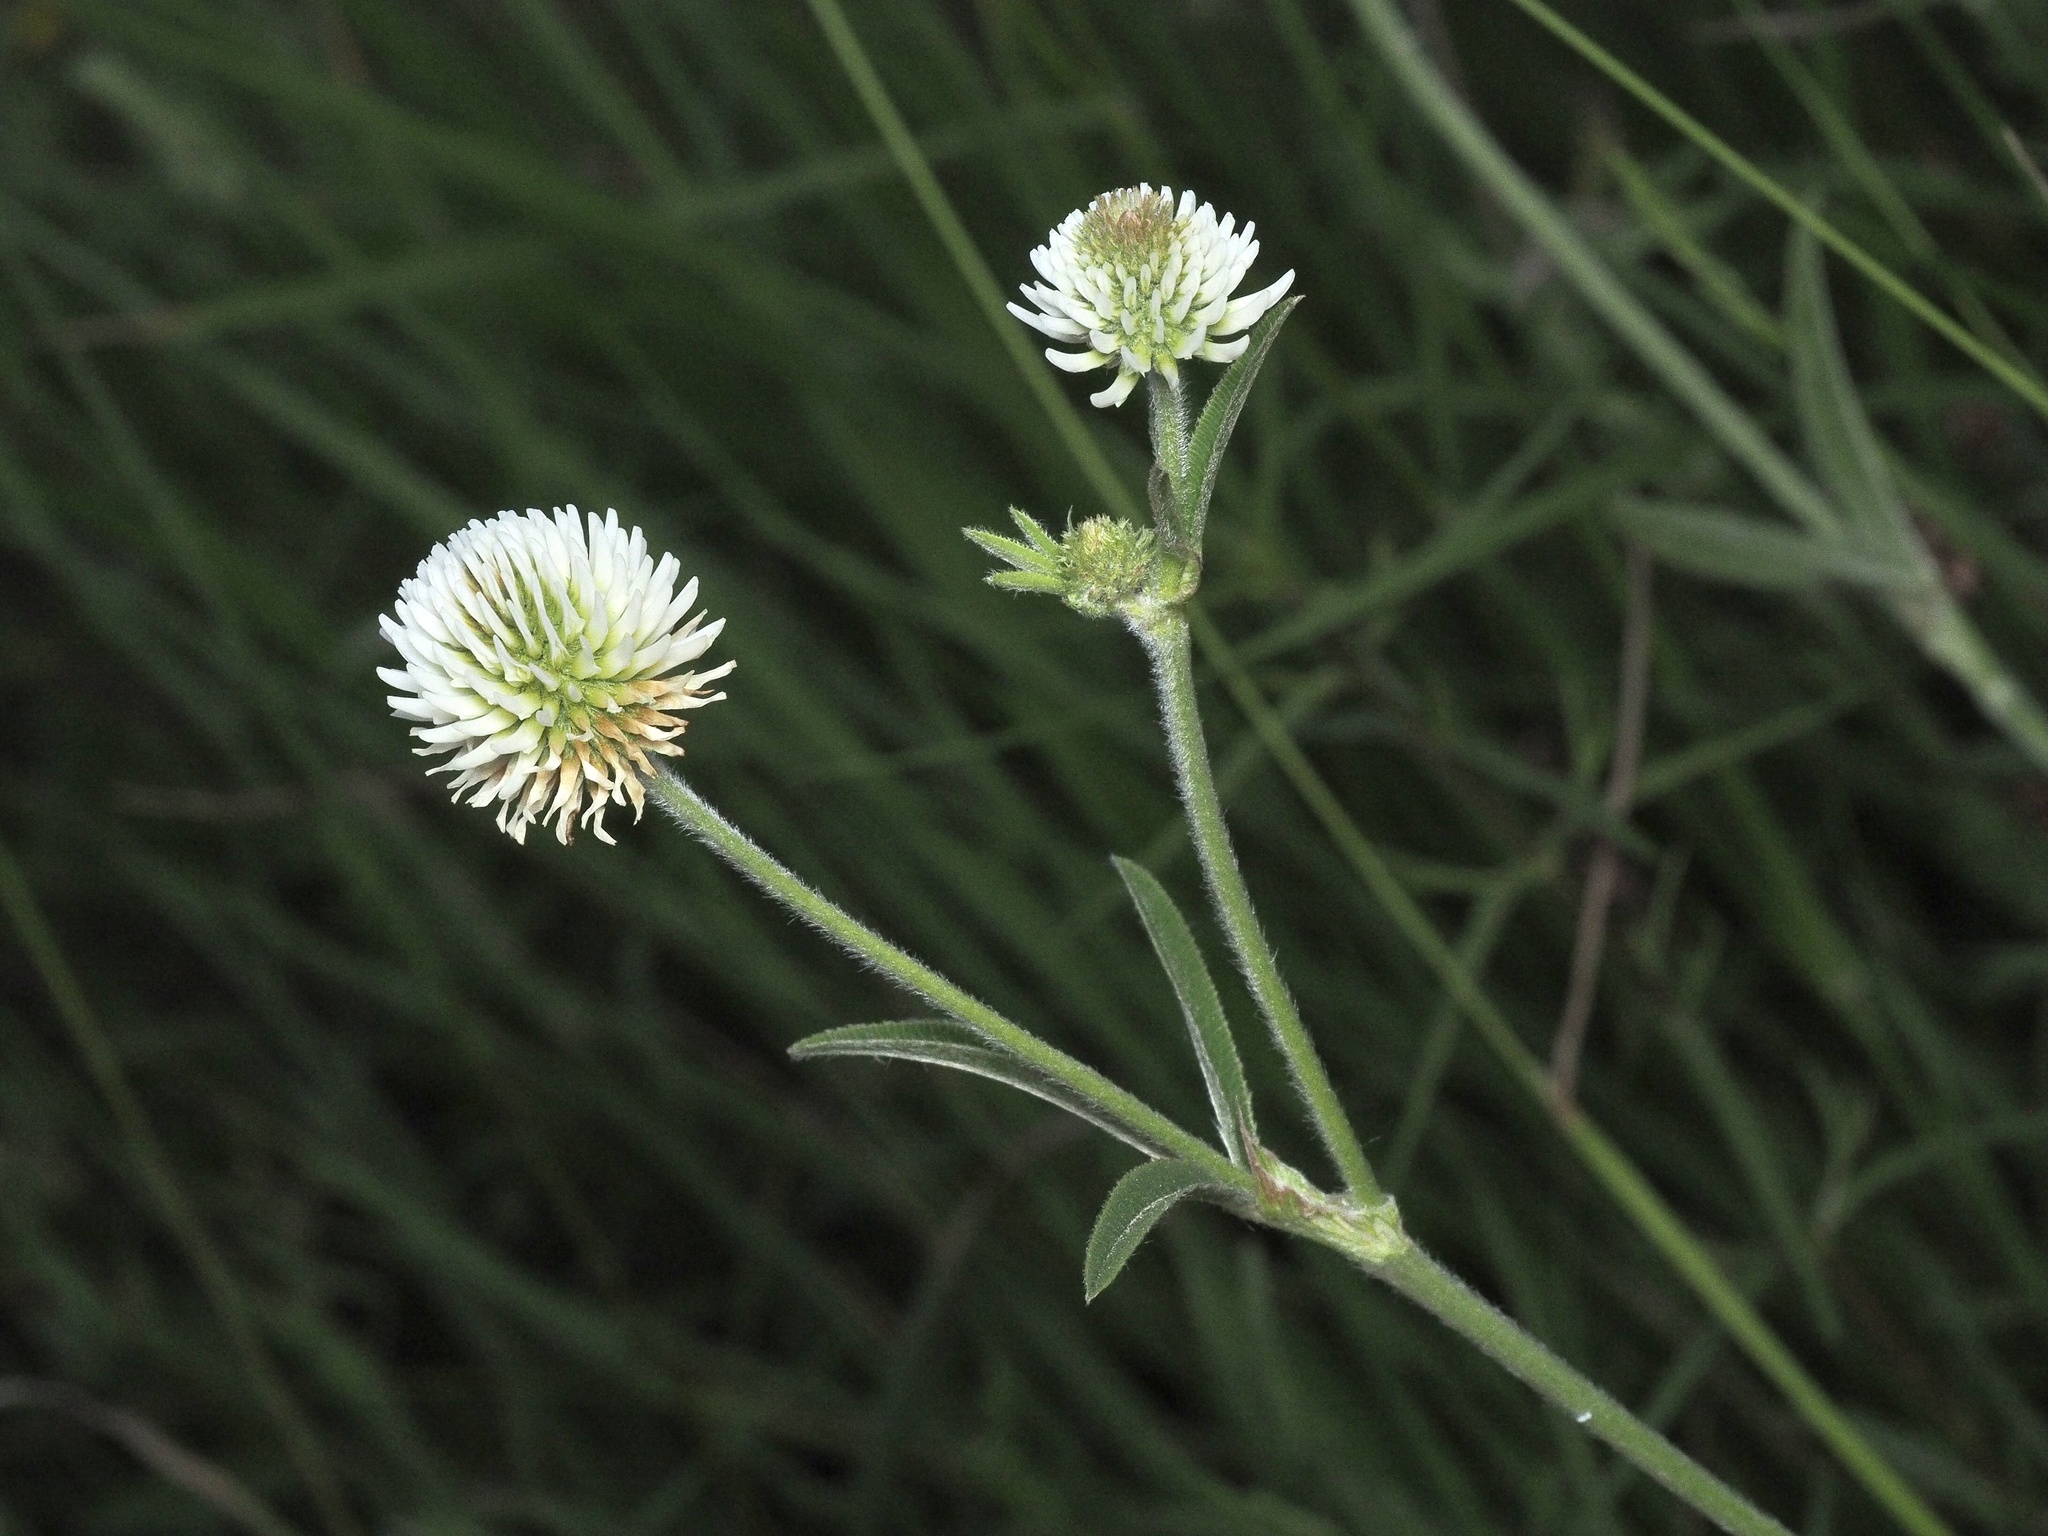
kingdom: Plantae
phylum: Tracheophyta
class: Magnoliopsida
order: Fabales
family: Fabaceae
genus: Trifolium
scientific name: Trifolium montanum
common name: Mountain clover
